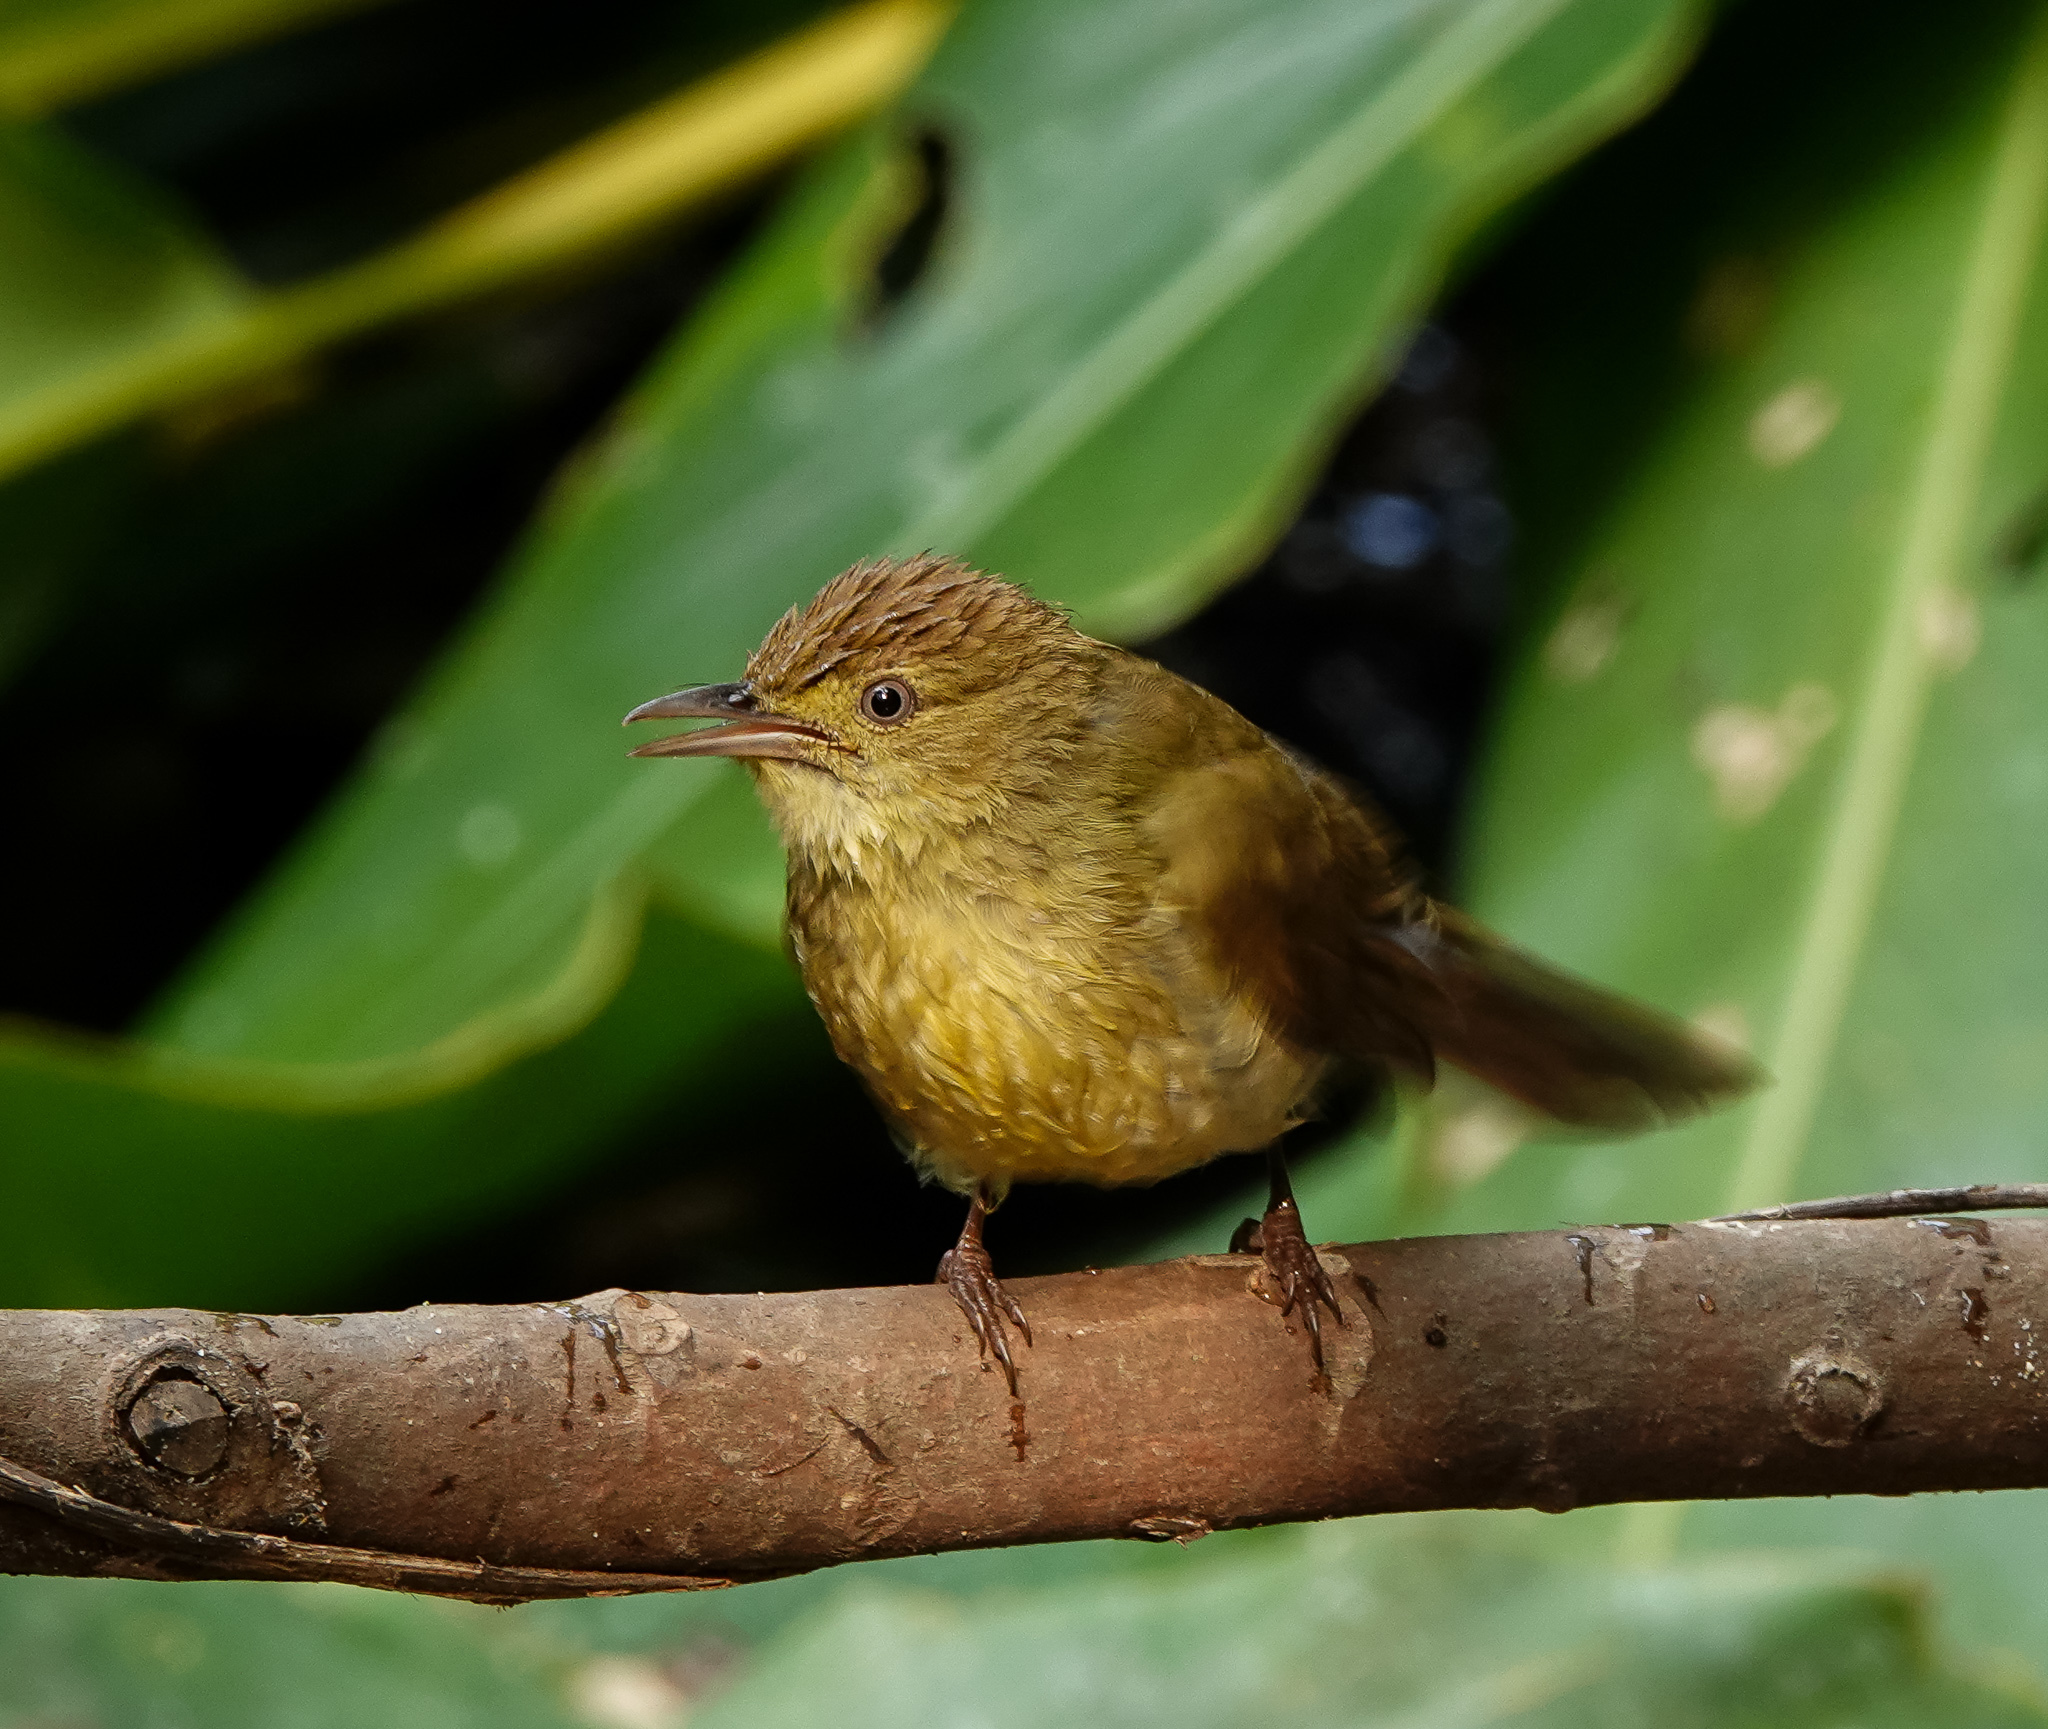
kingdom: Animalia
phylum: Chordata
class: Aves
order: Passeriformes
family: Pycnonotidae
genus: Iole
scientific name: Iole virescens
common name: Olive bulbul
